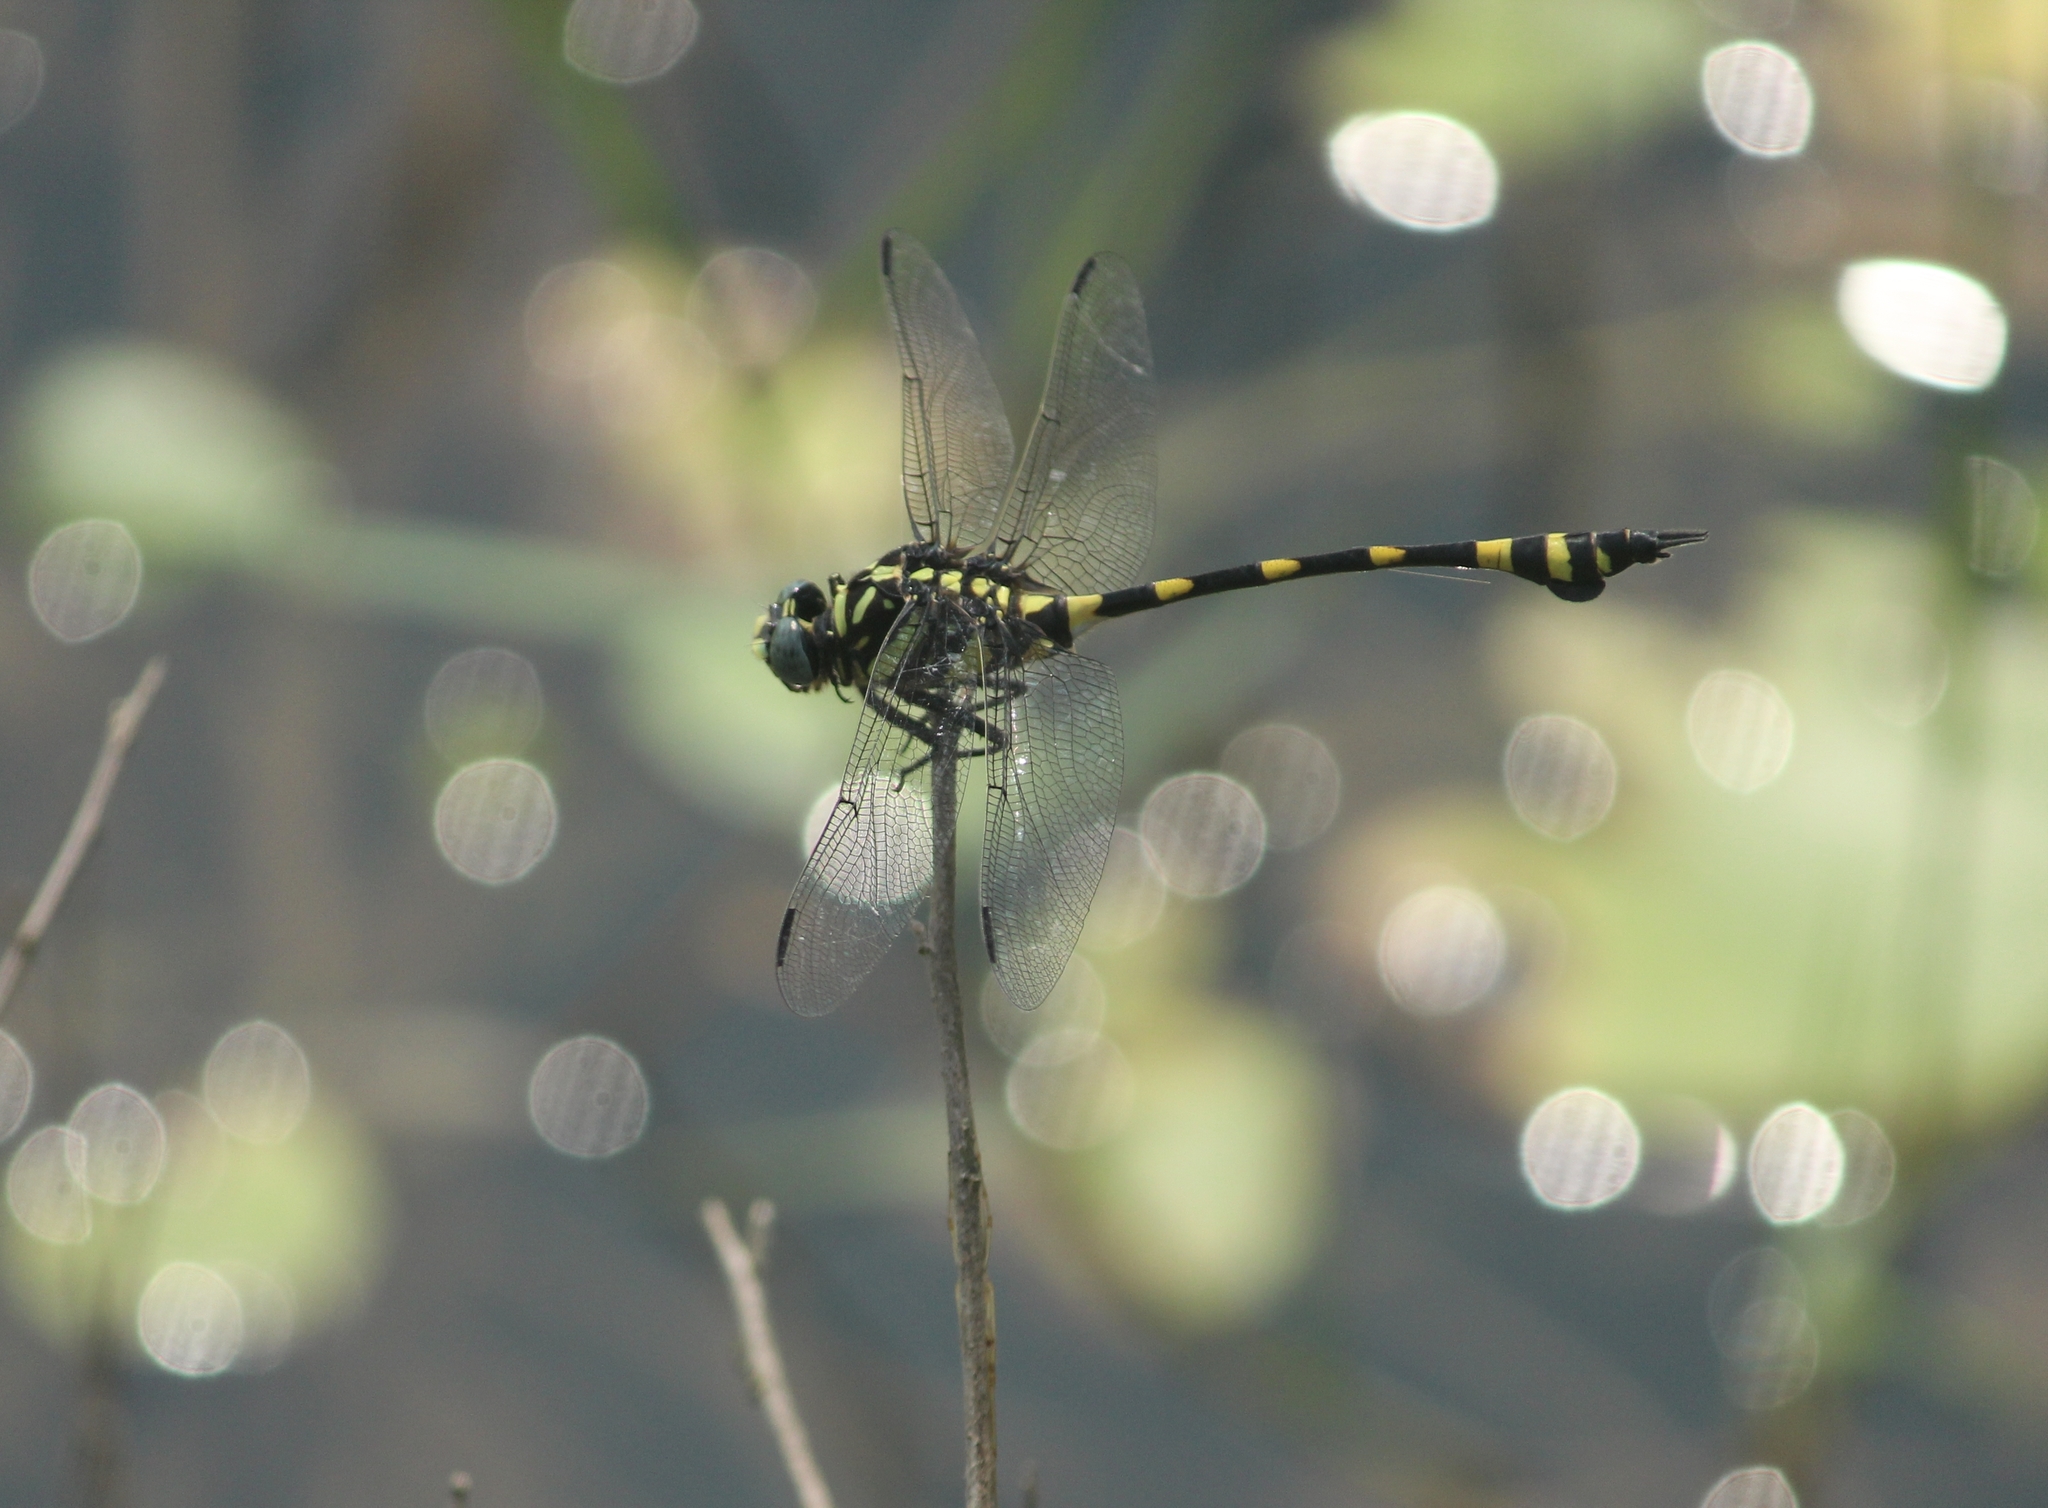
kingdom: Animalia
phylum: Arthropoda
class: Insecta
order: Odonata
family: Gomphidae
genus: Ictinogomphus
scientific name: Ictinogomphus rapax
